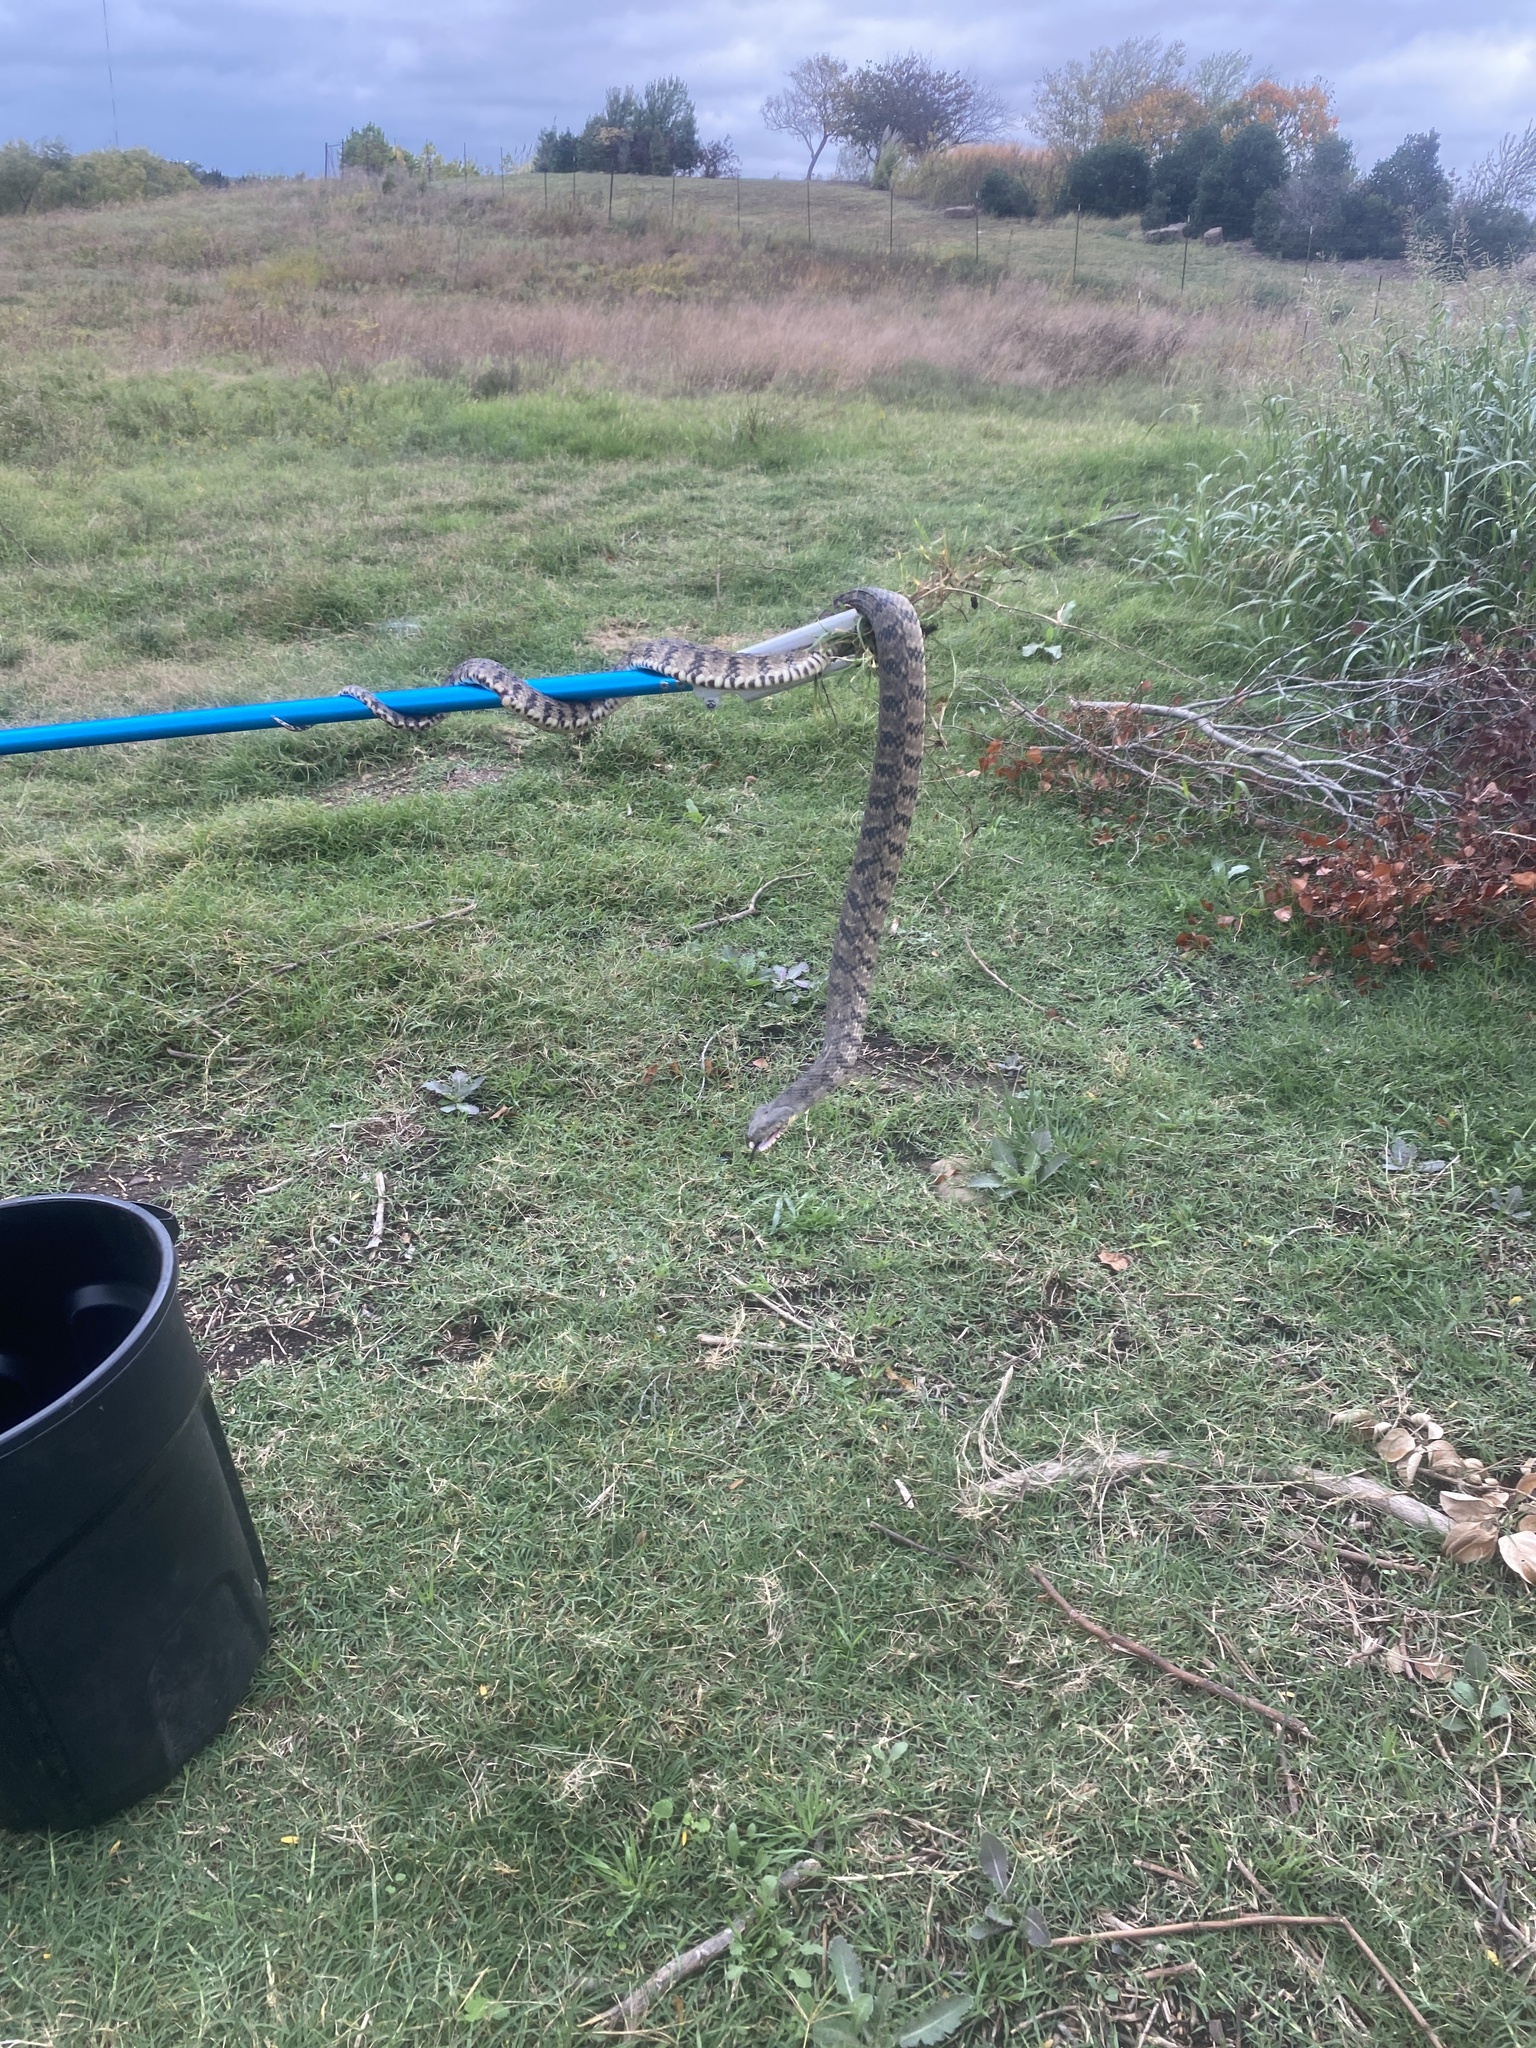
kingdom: Animalia
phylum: Chordata
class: Squamata
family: Colubridae
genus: Nerodia
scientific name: Nerodia rhombifer
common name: Diamondback water snake
